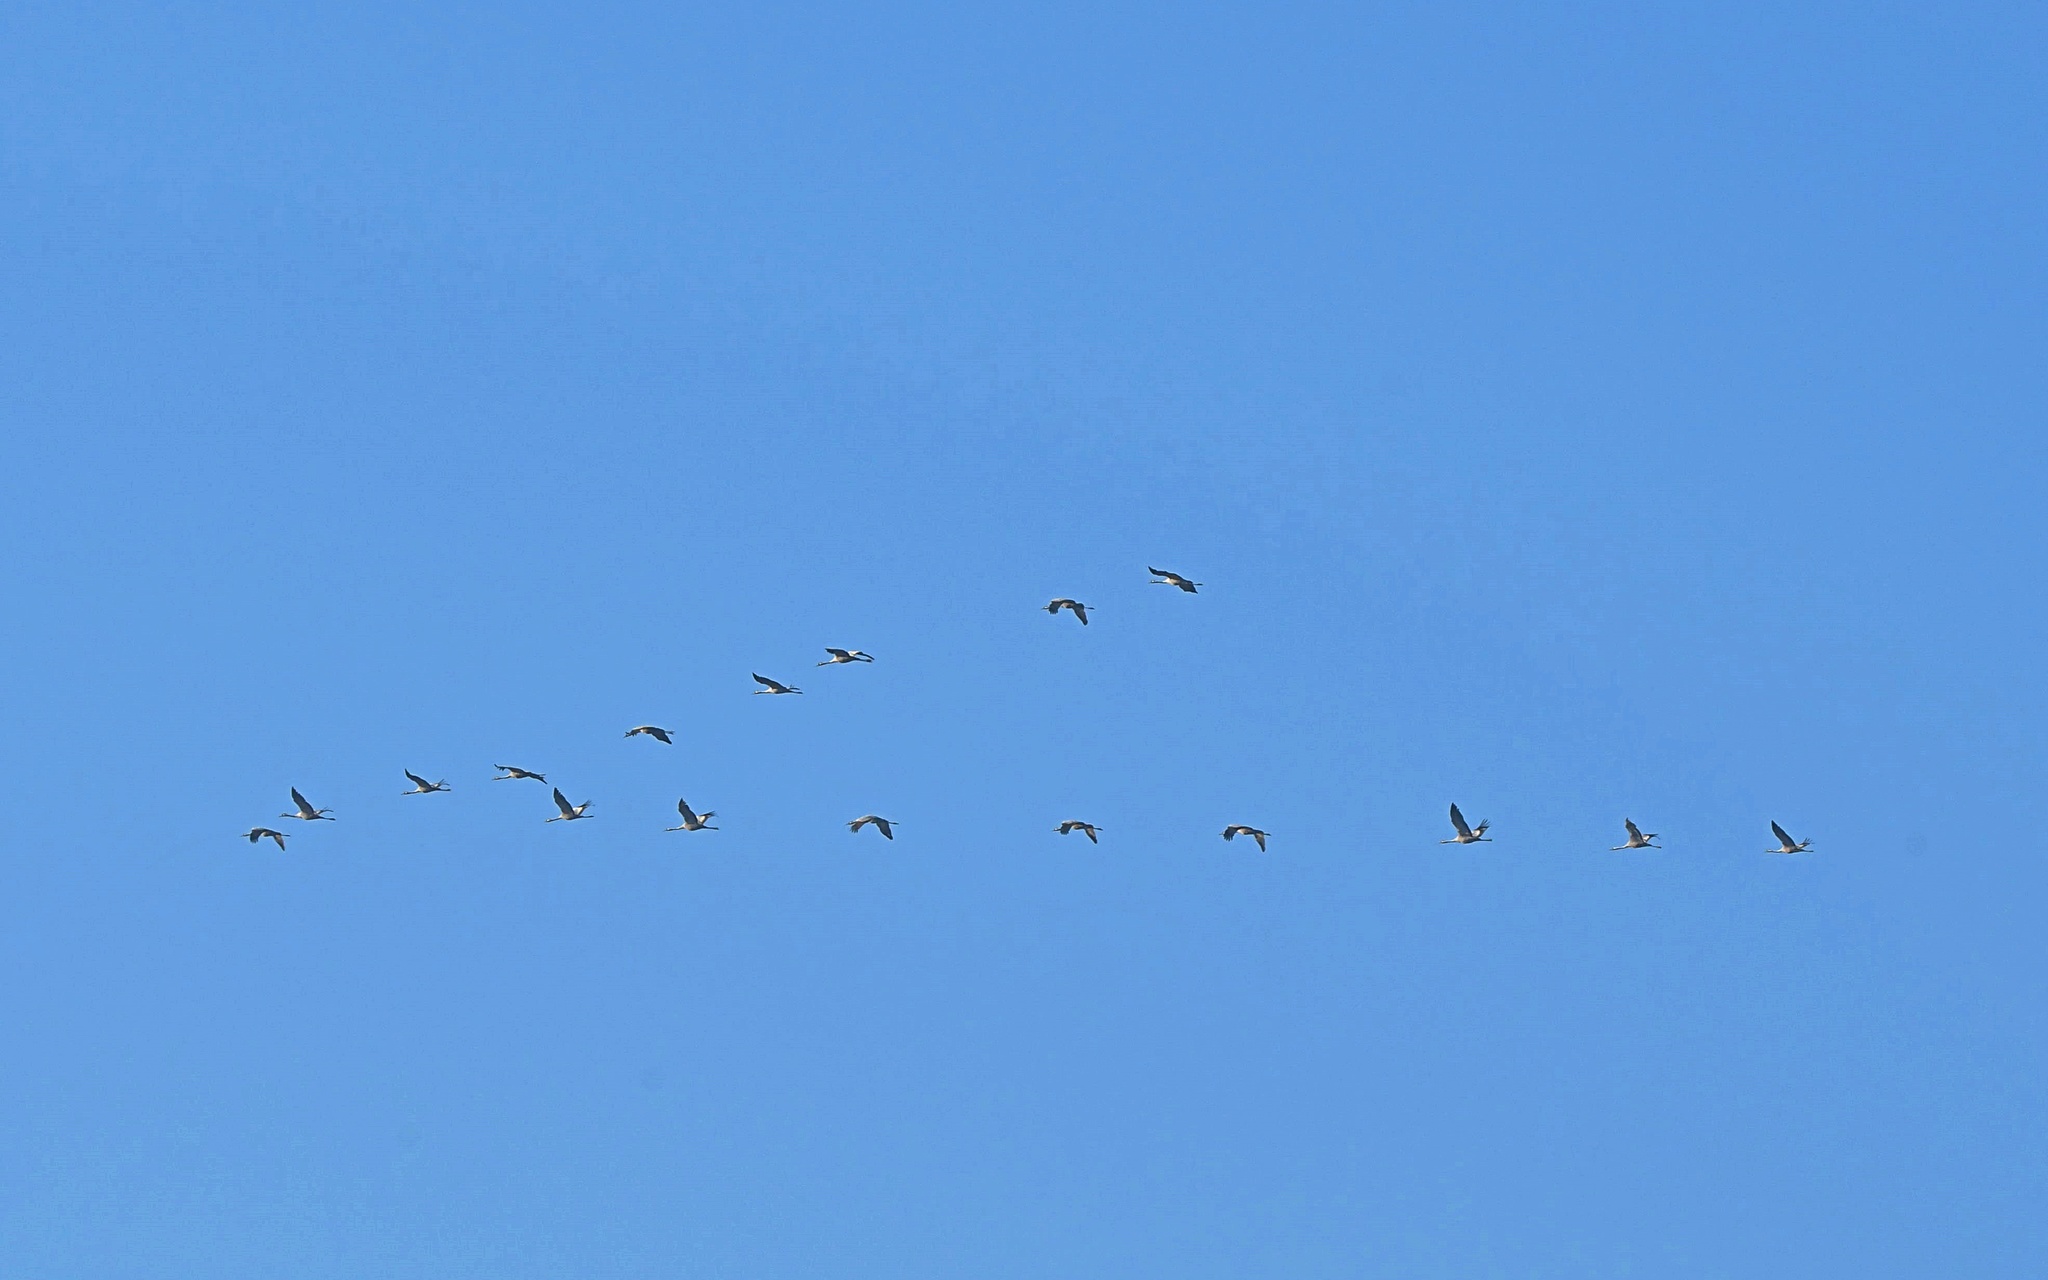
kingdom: Animalia
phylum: Chordata
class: Aves
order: Gruiformes
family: Gruidae
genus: Grus
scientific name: Grus grus
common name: Common crane
